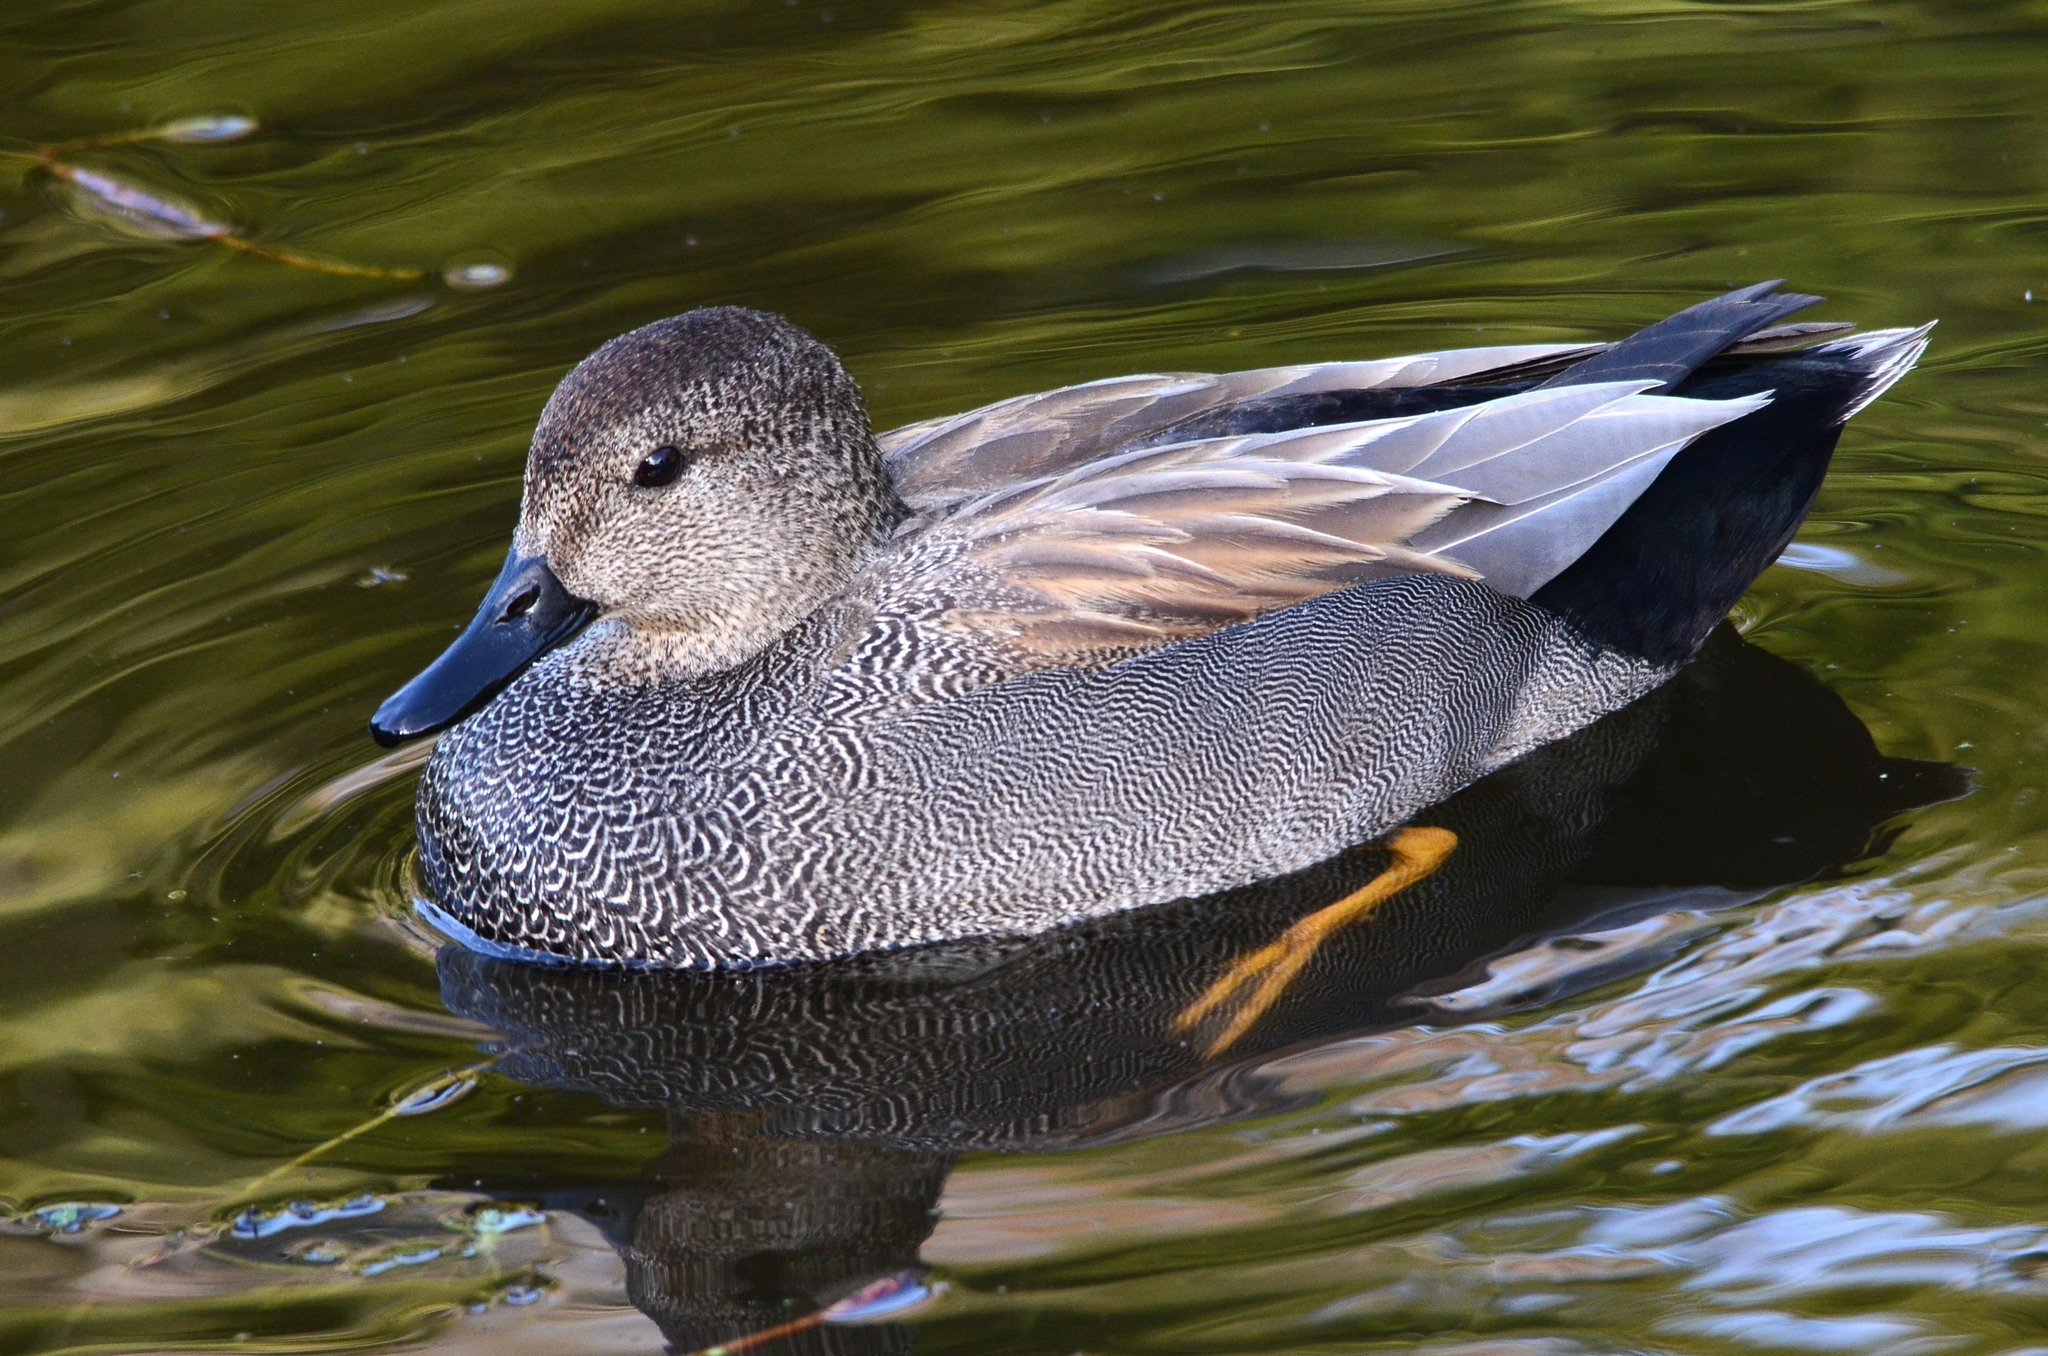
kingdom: Animalia
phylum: Chordata
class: Aves
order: Anseriformes
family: Anatidae
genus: Mareca
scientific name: Mareca strepera
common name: Gadwall
